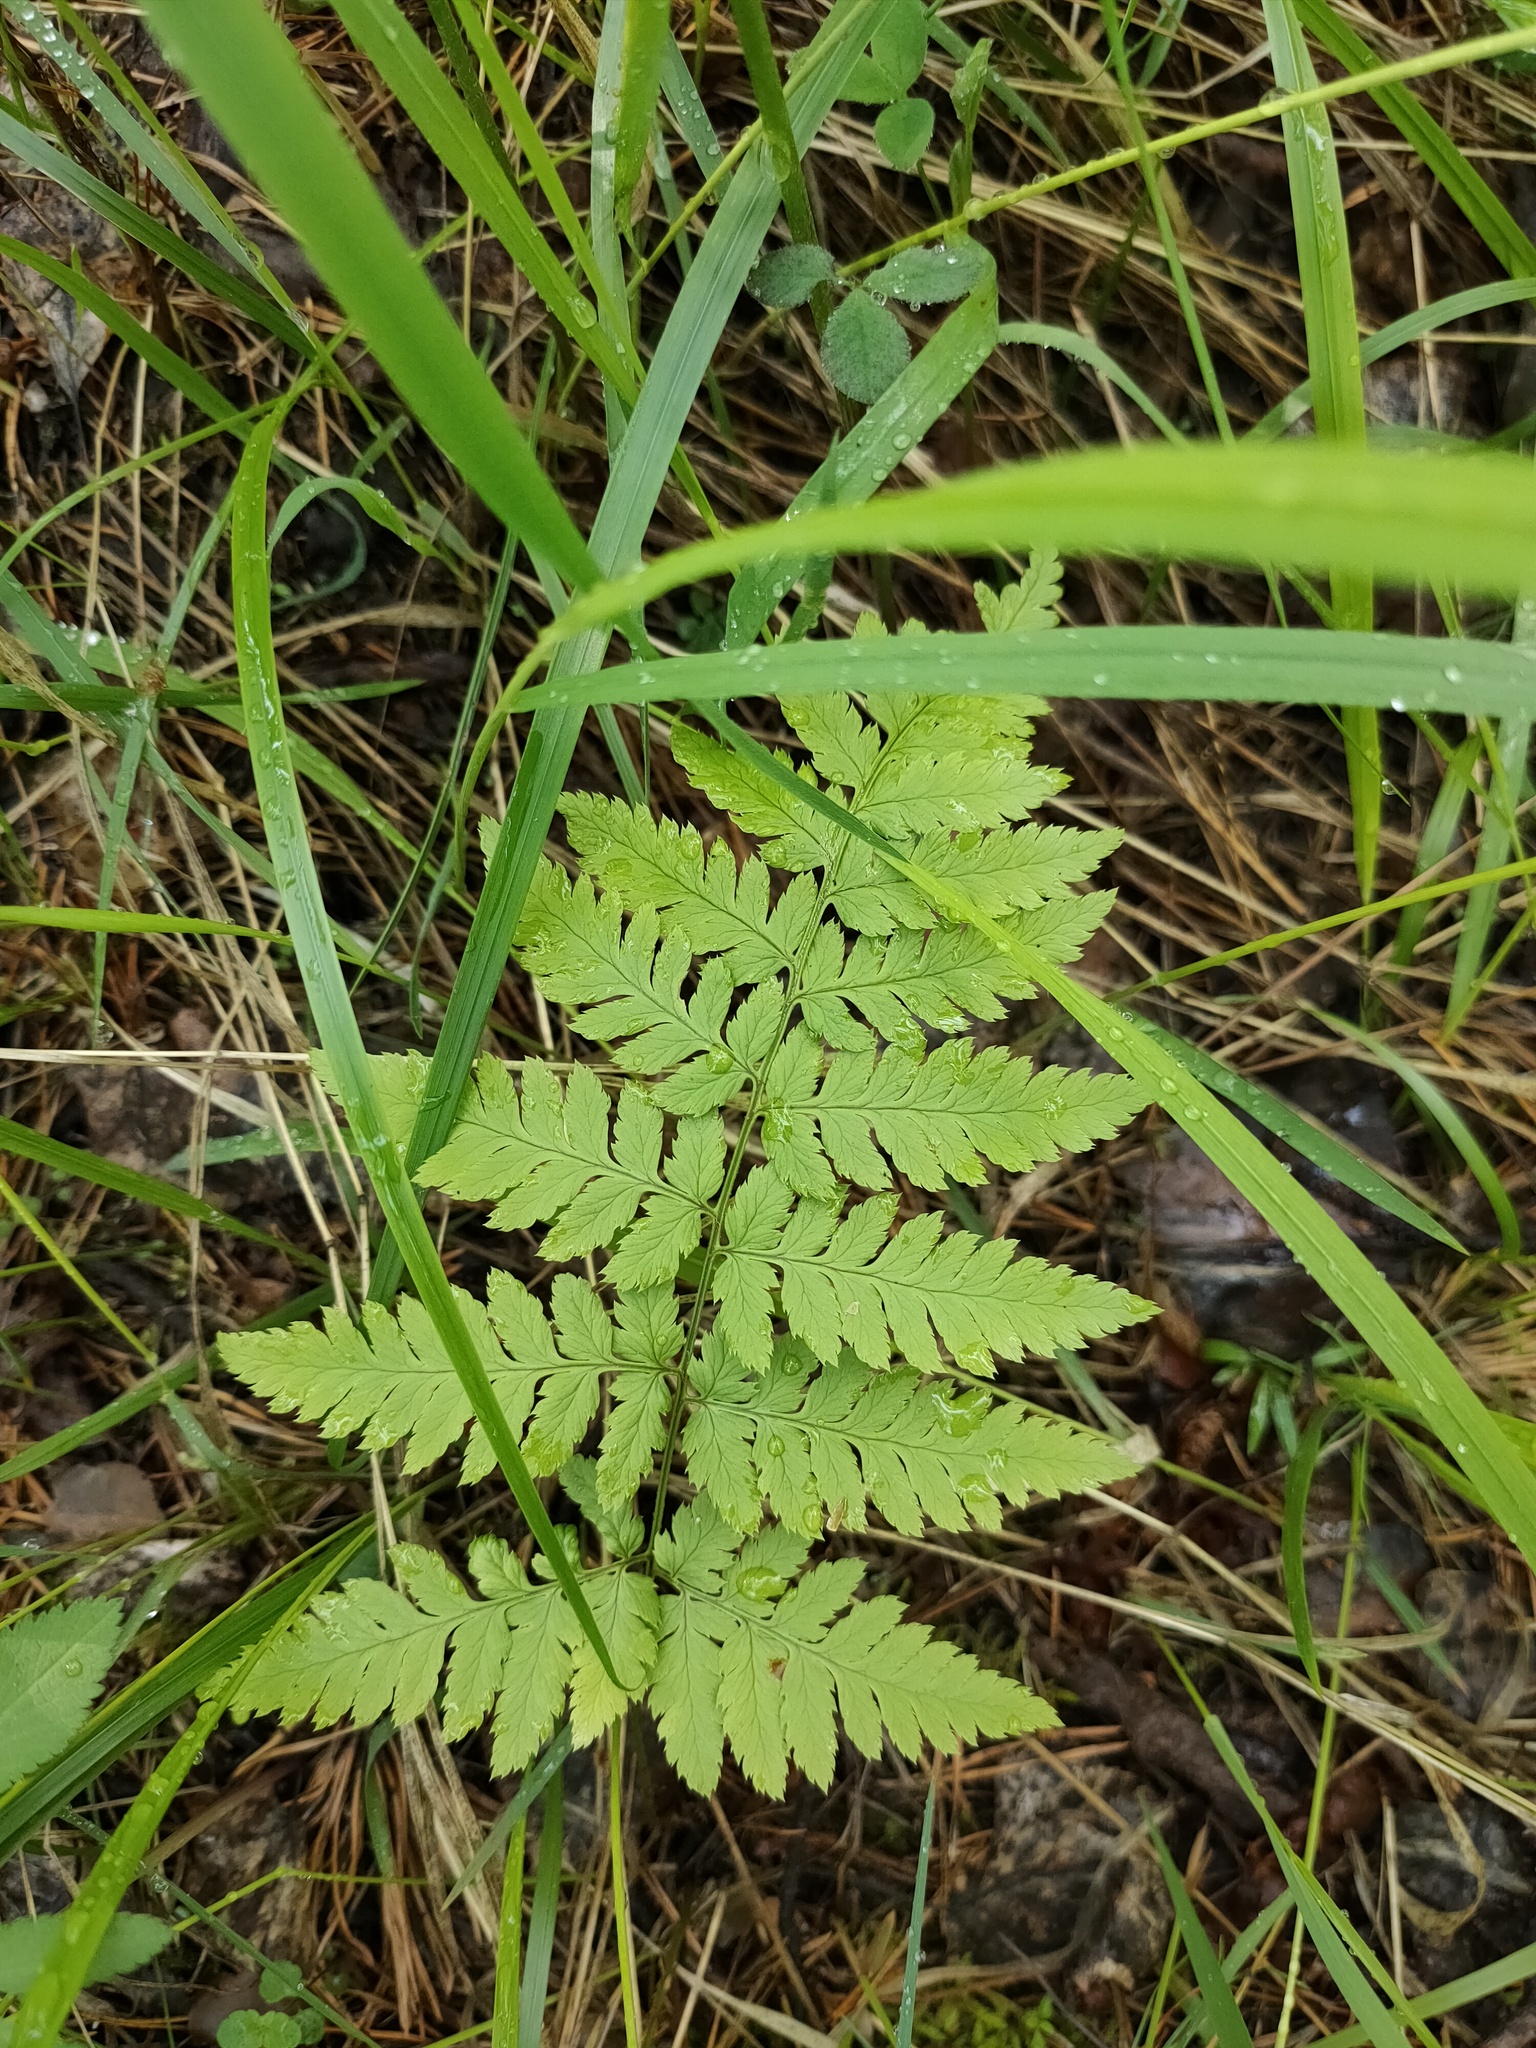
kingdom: Plantae
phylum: Tracheophyta
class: Polypodiopsida
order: Polypodiales
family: Dryopteridaceae
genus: Dryopteris
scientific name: Dryopteris expansa
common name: Northern buckler fern
